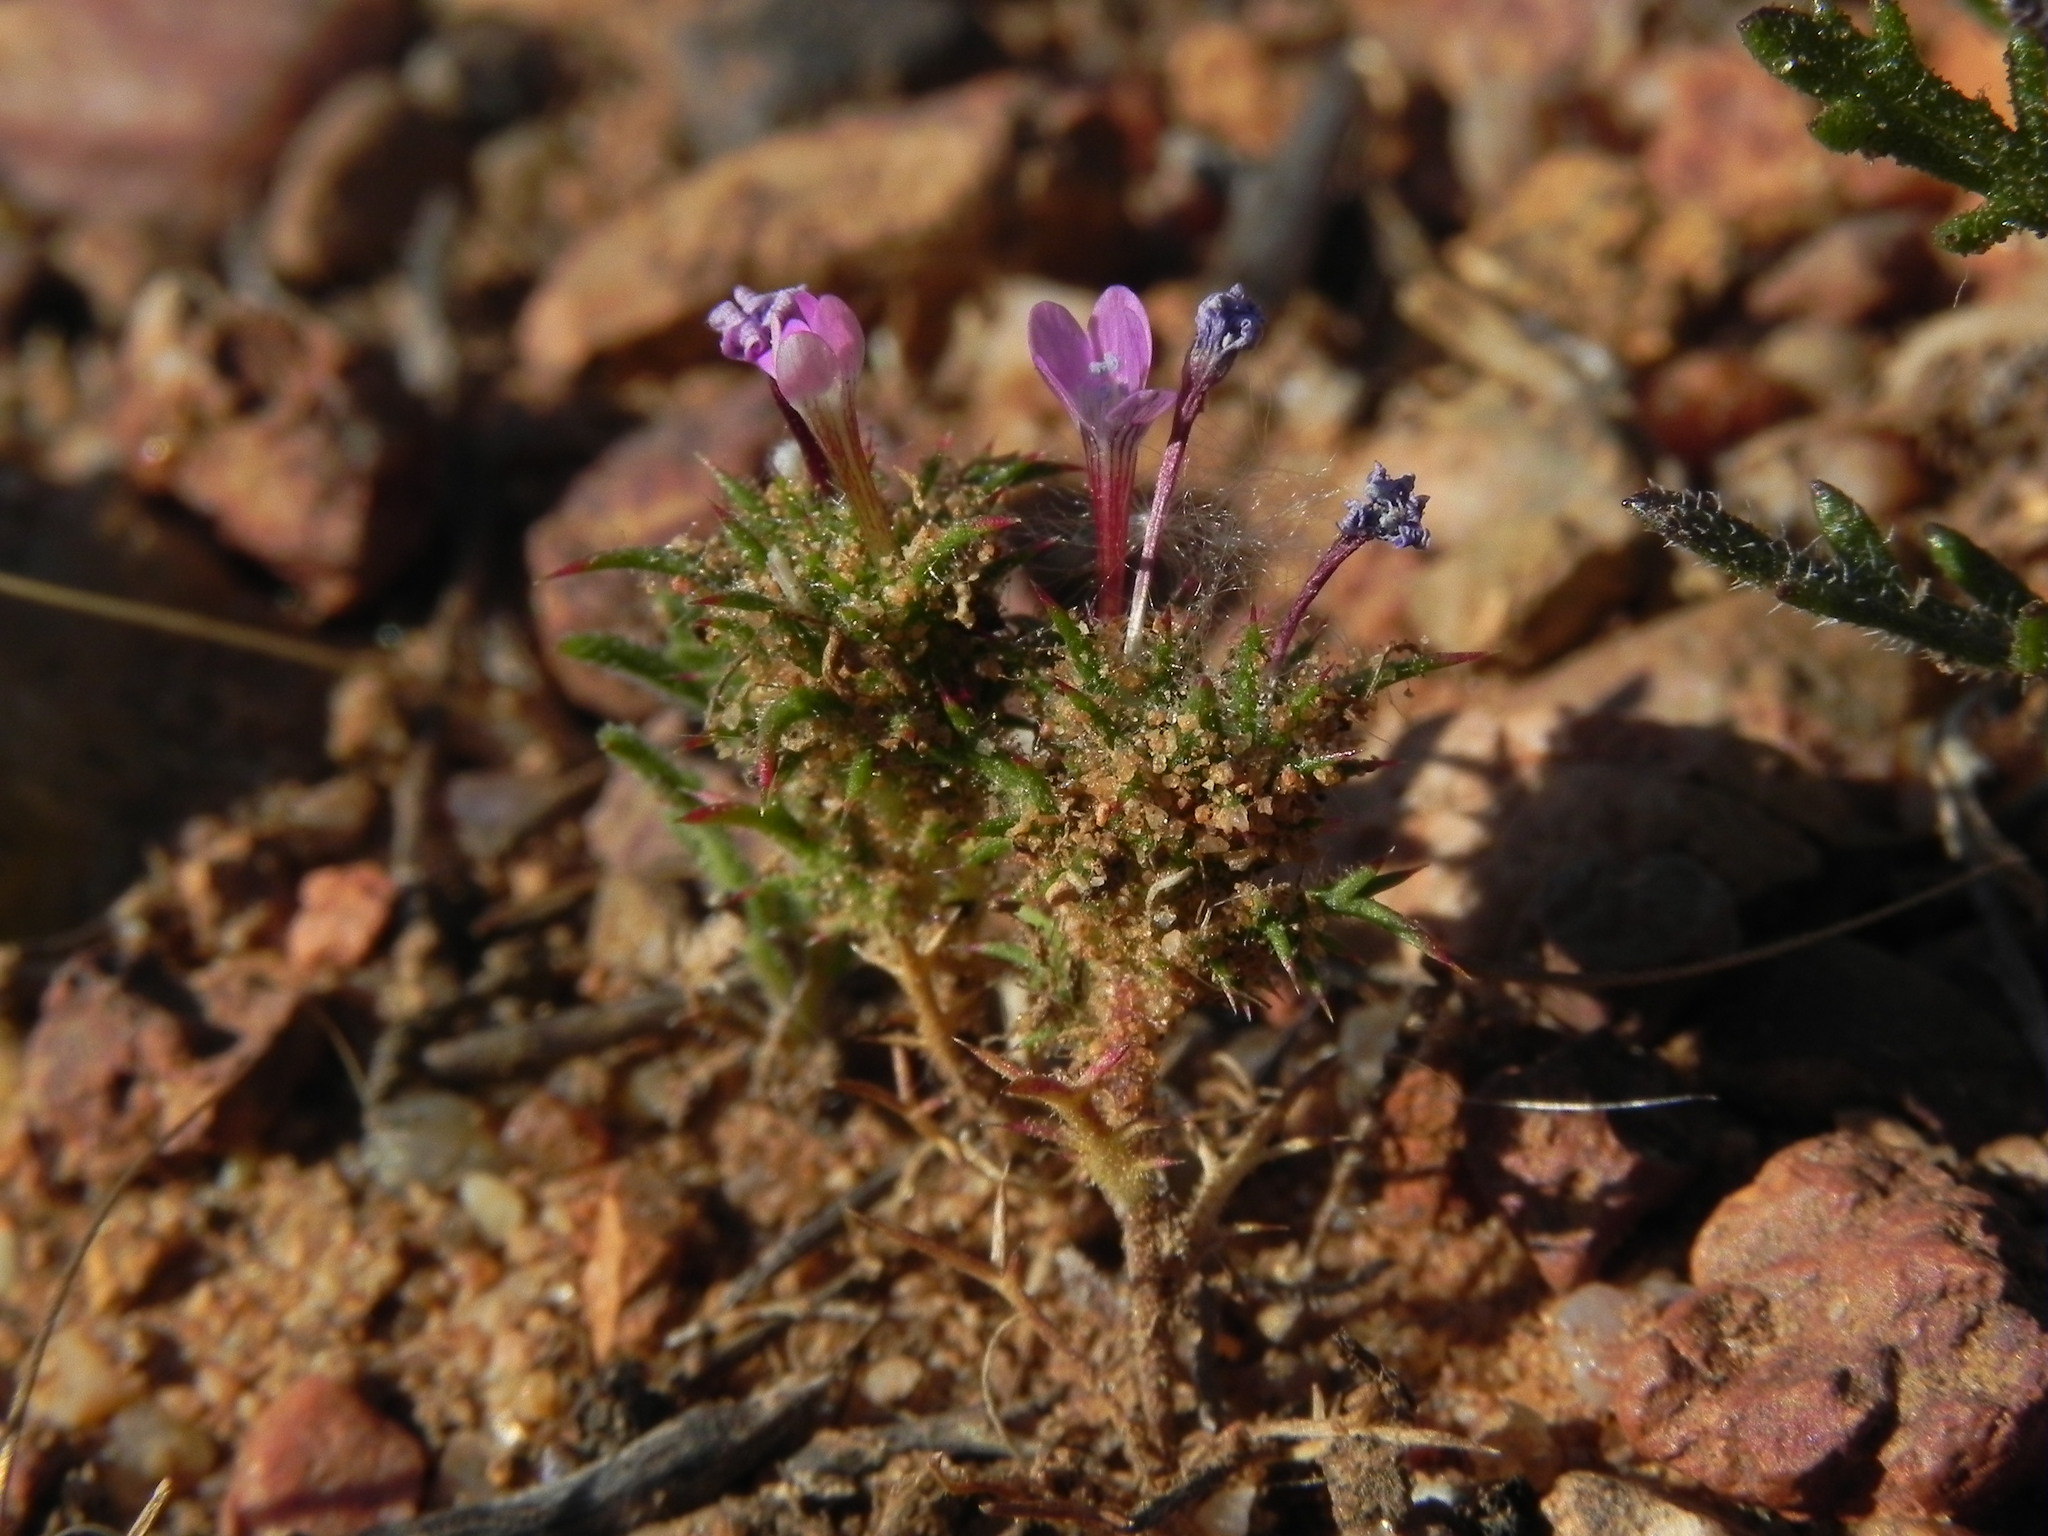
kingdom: Plantae
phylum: Tracheophyta
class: Magnoliopsida
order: Ericales
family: Polemoniaceae
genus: Navarretia
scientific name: Navarretia hamata
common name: Hooked navarretia
